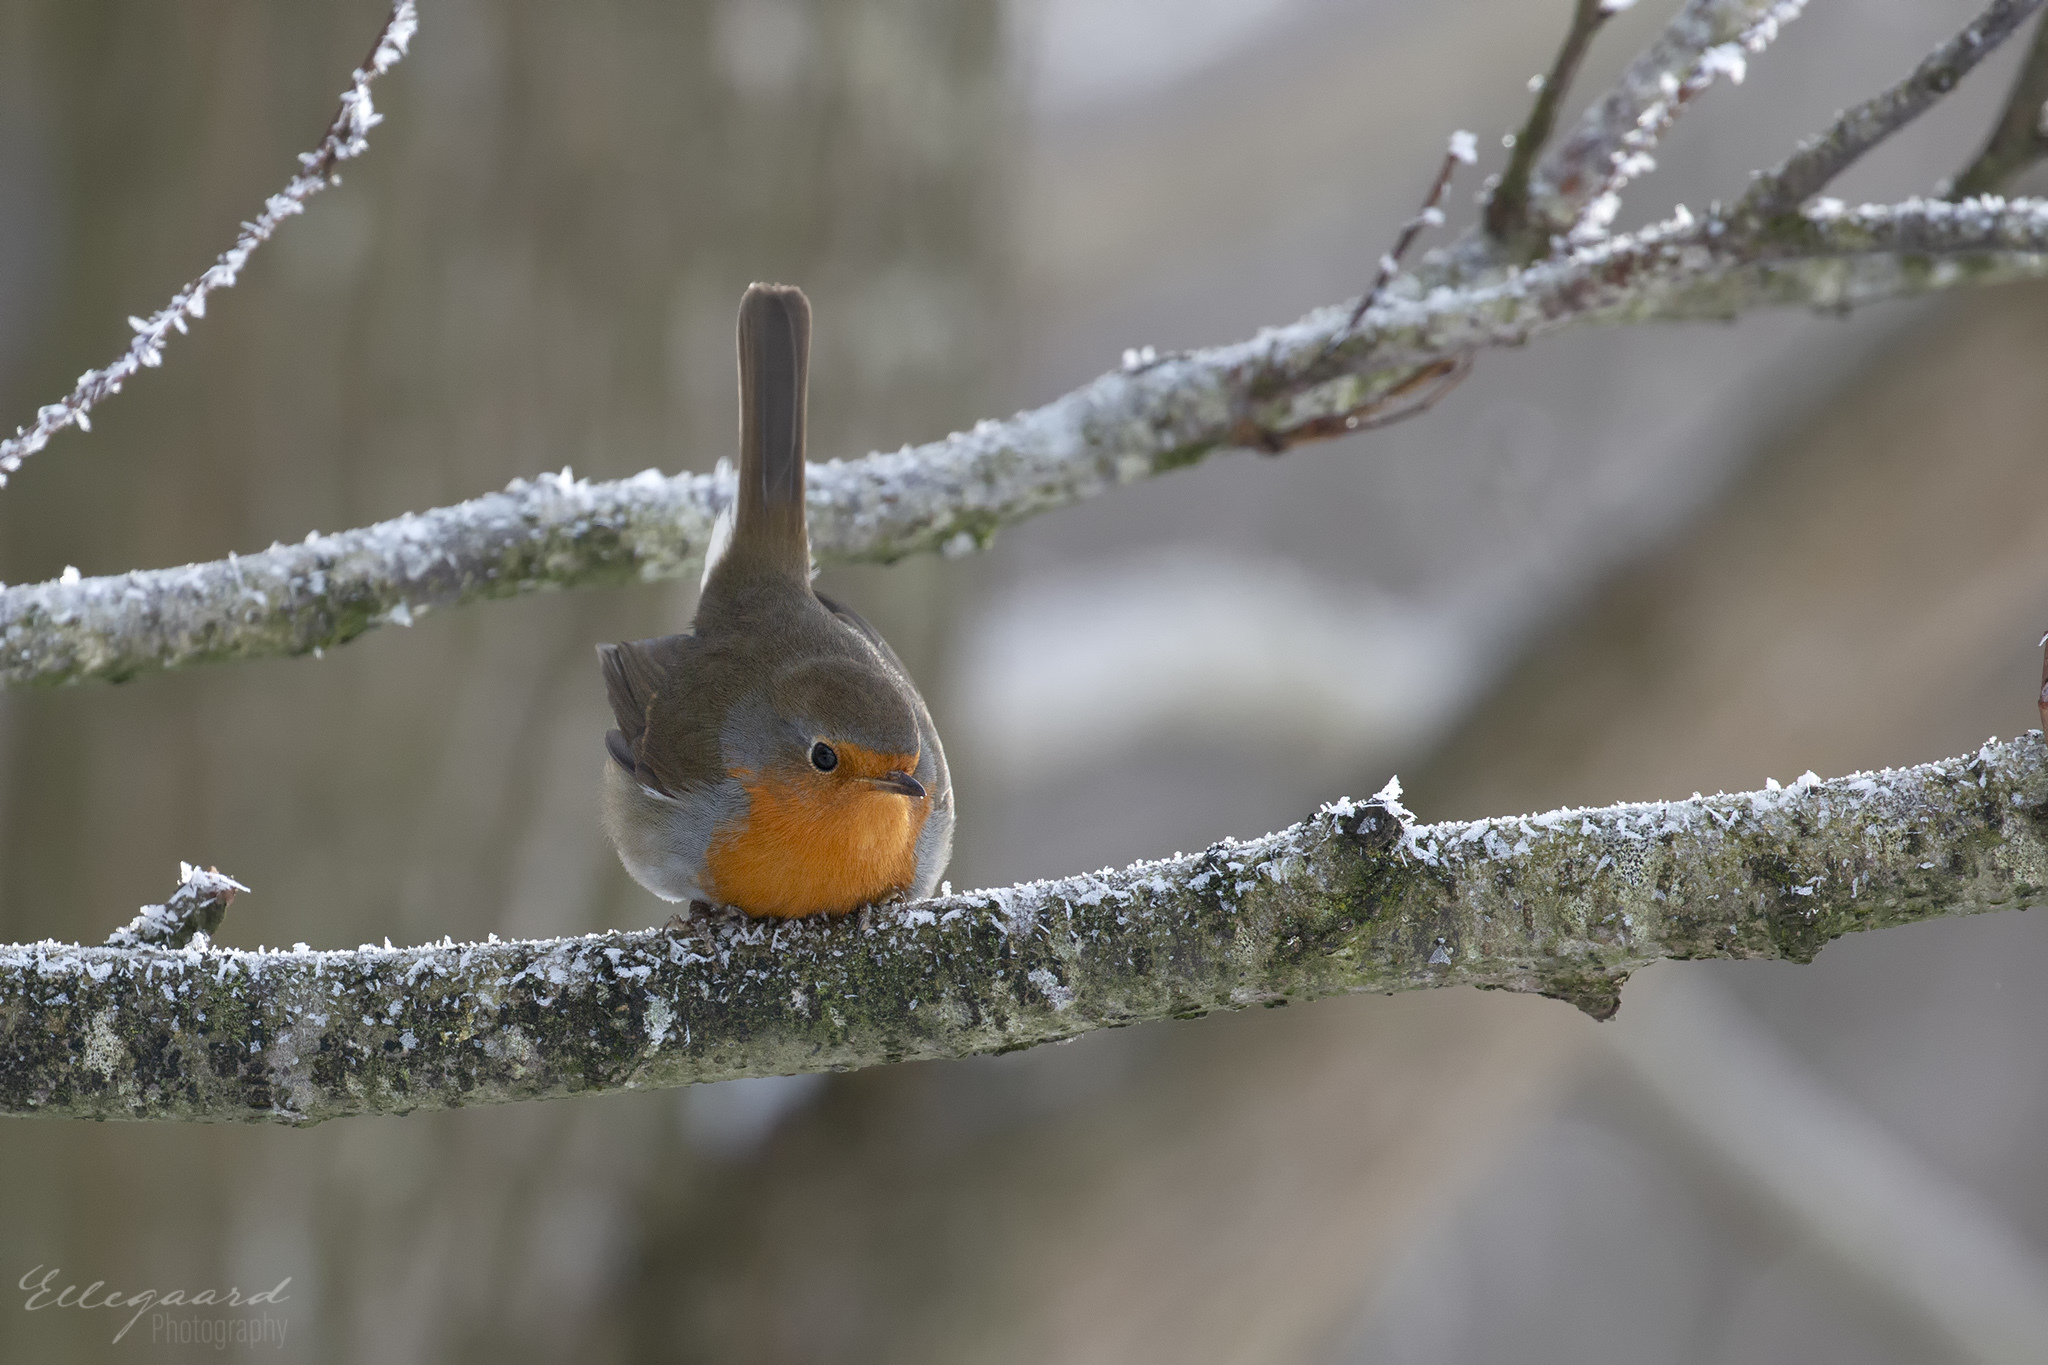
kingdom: Animalia
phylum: Chordata
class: Aves
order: Passeriformes
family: Muscicapidae
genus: Erithacus
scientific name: Erithacus rubecula
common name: European robin
